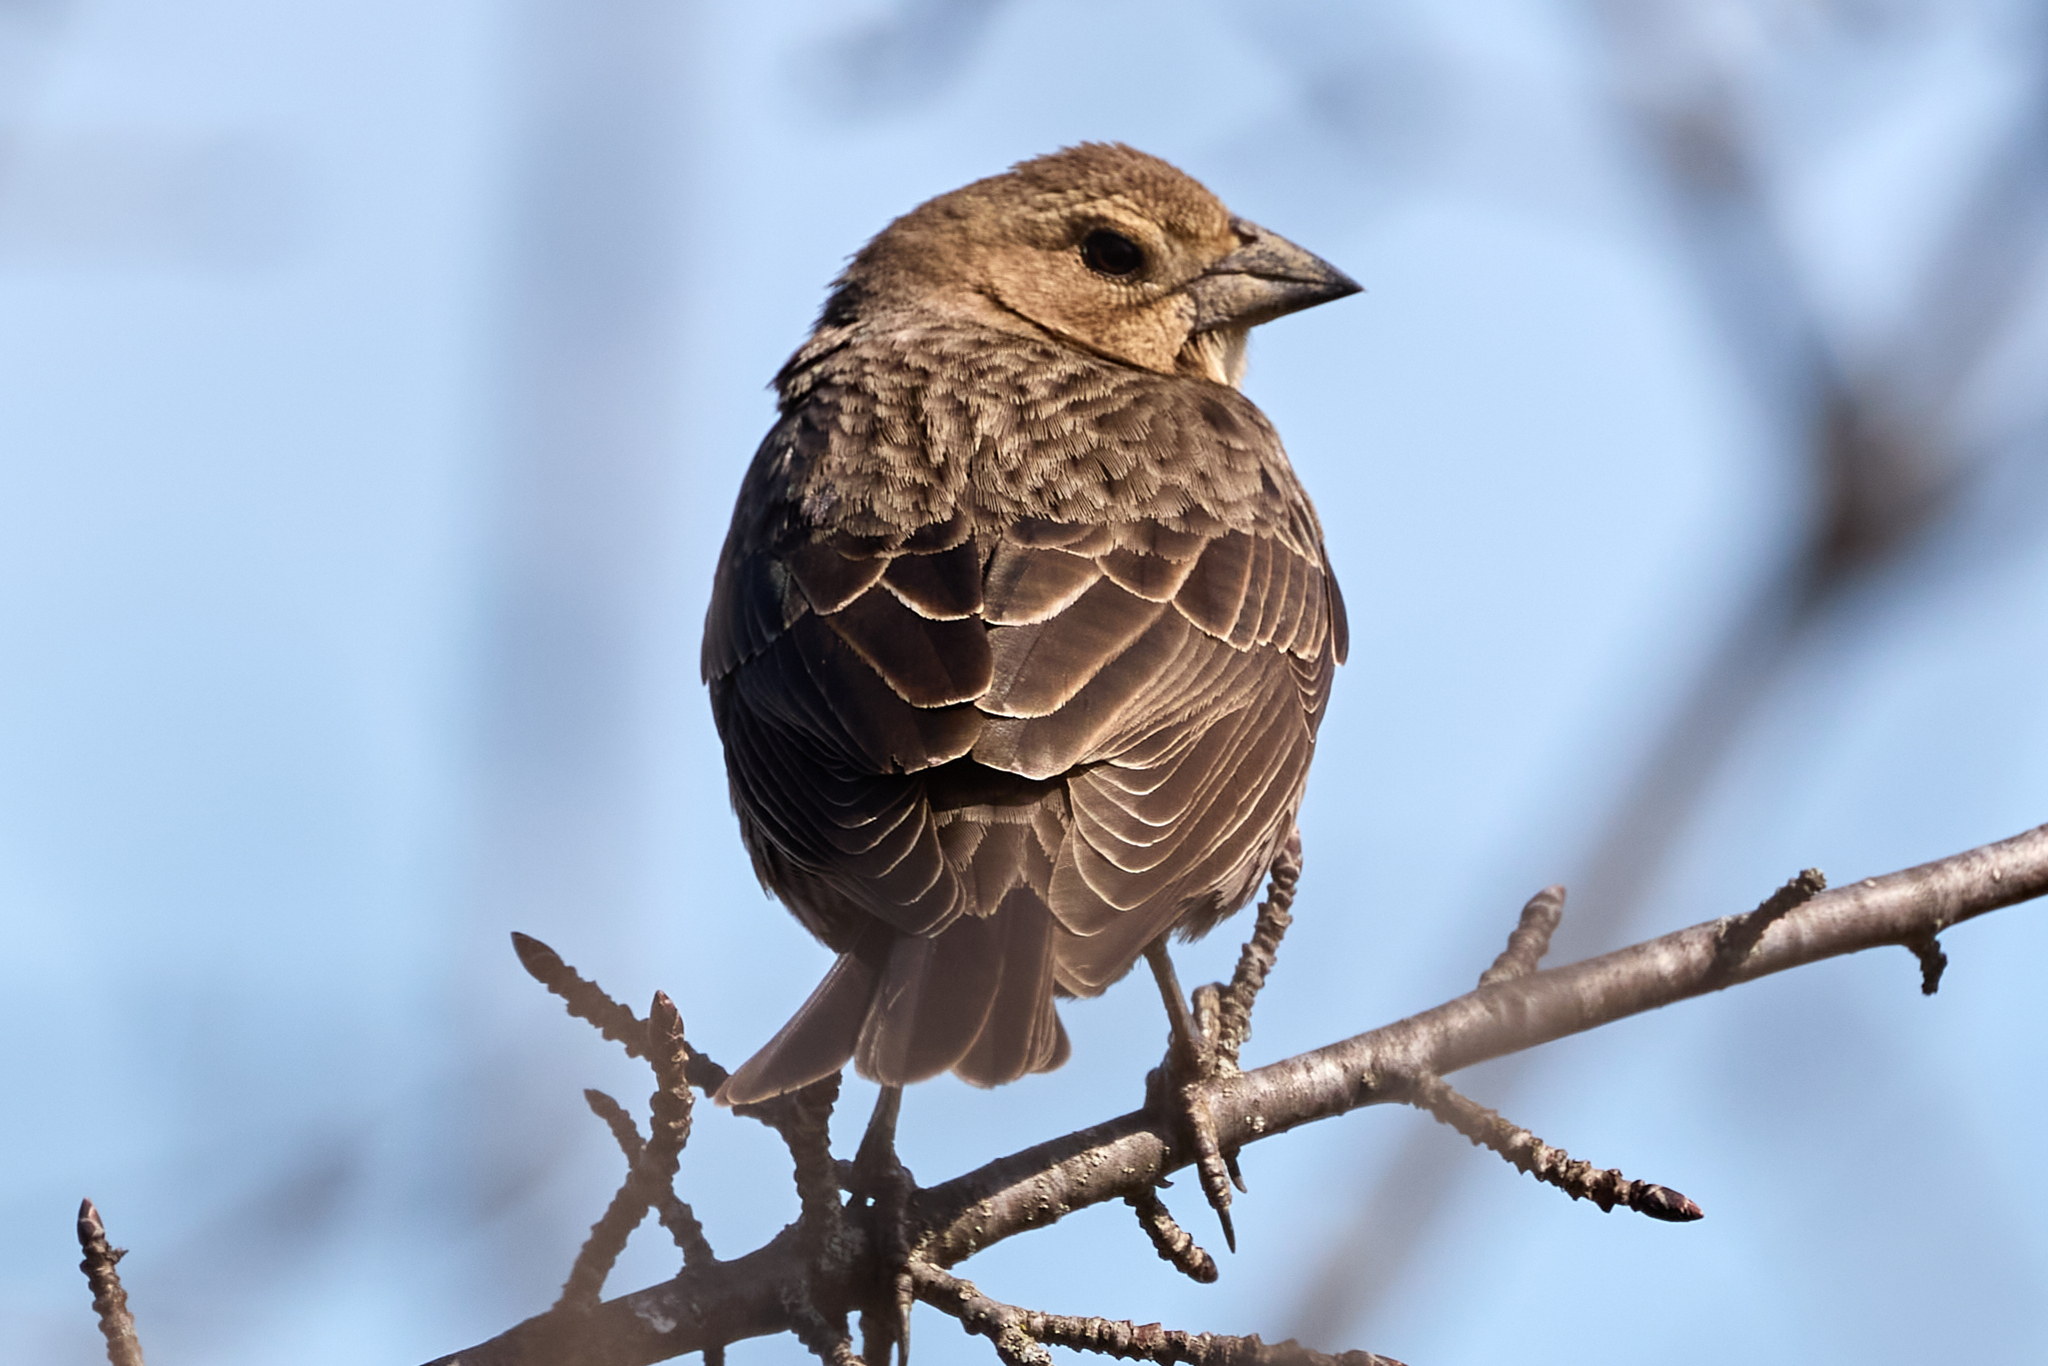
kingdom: Animalia
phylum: Chordata
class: Aves
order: Passeriformes
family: Icteridae
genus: Molothrus
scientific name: Molothrus ater
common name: Brown-headed cowbird
